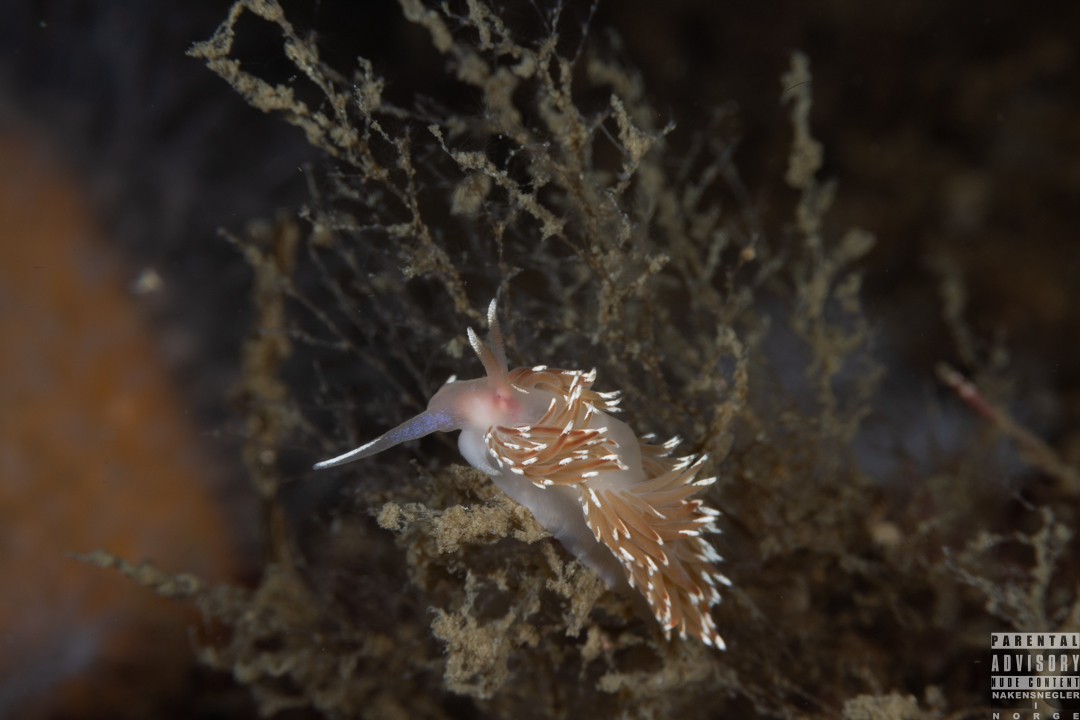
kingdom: Animalia
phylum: Mollusca
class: Gastropoda
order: Nudibranchia
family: Facelinidae
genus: Facelina
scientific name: Facelina bostoniensis
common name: Boston facelina
